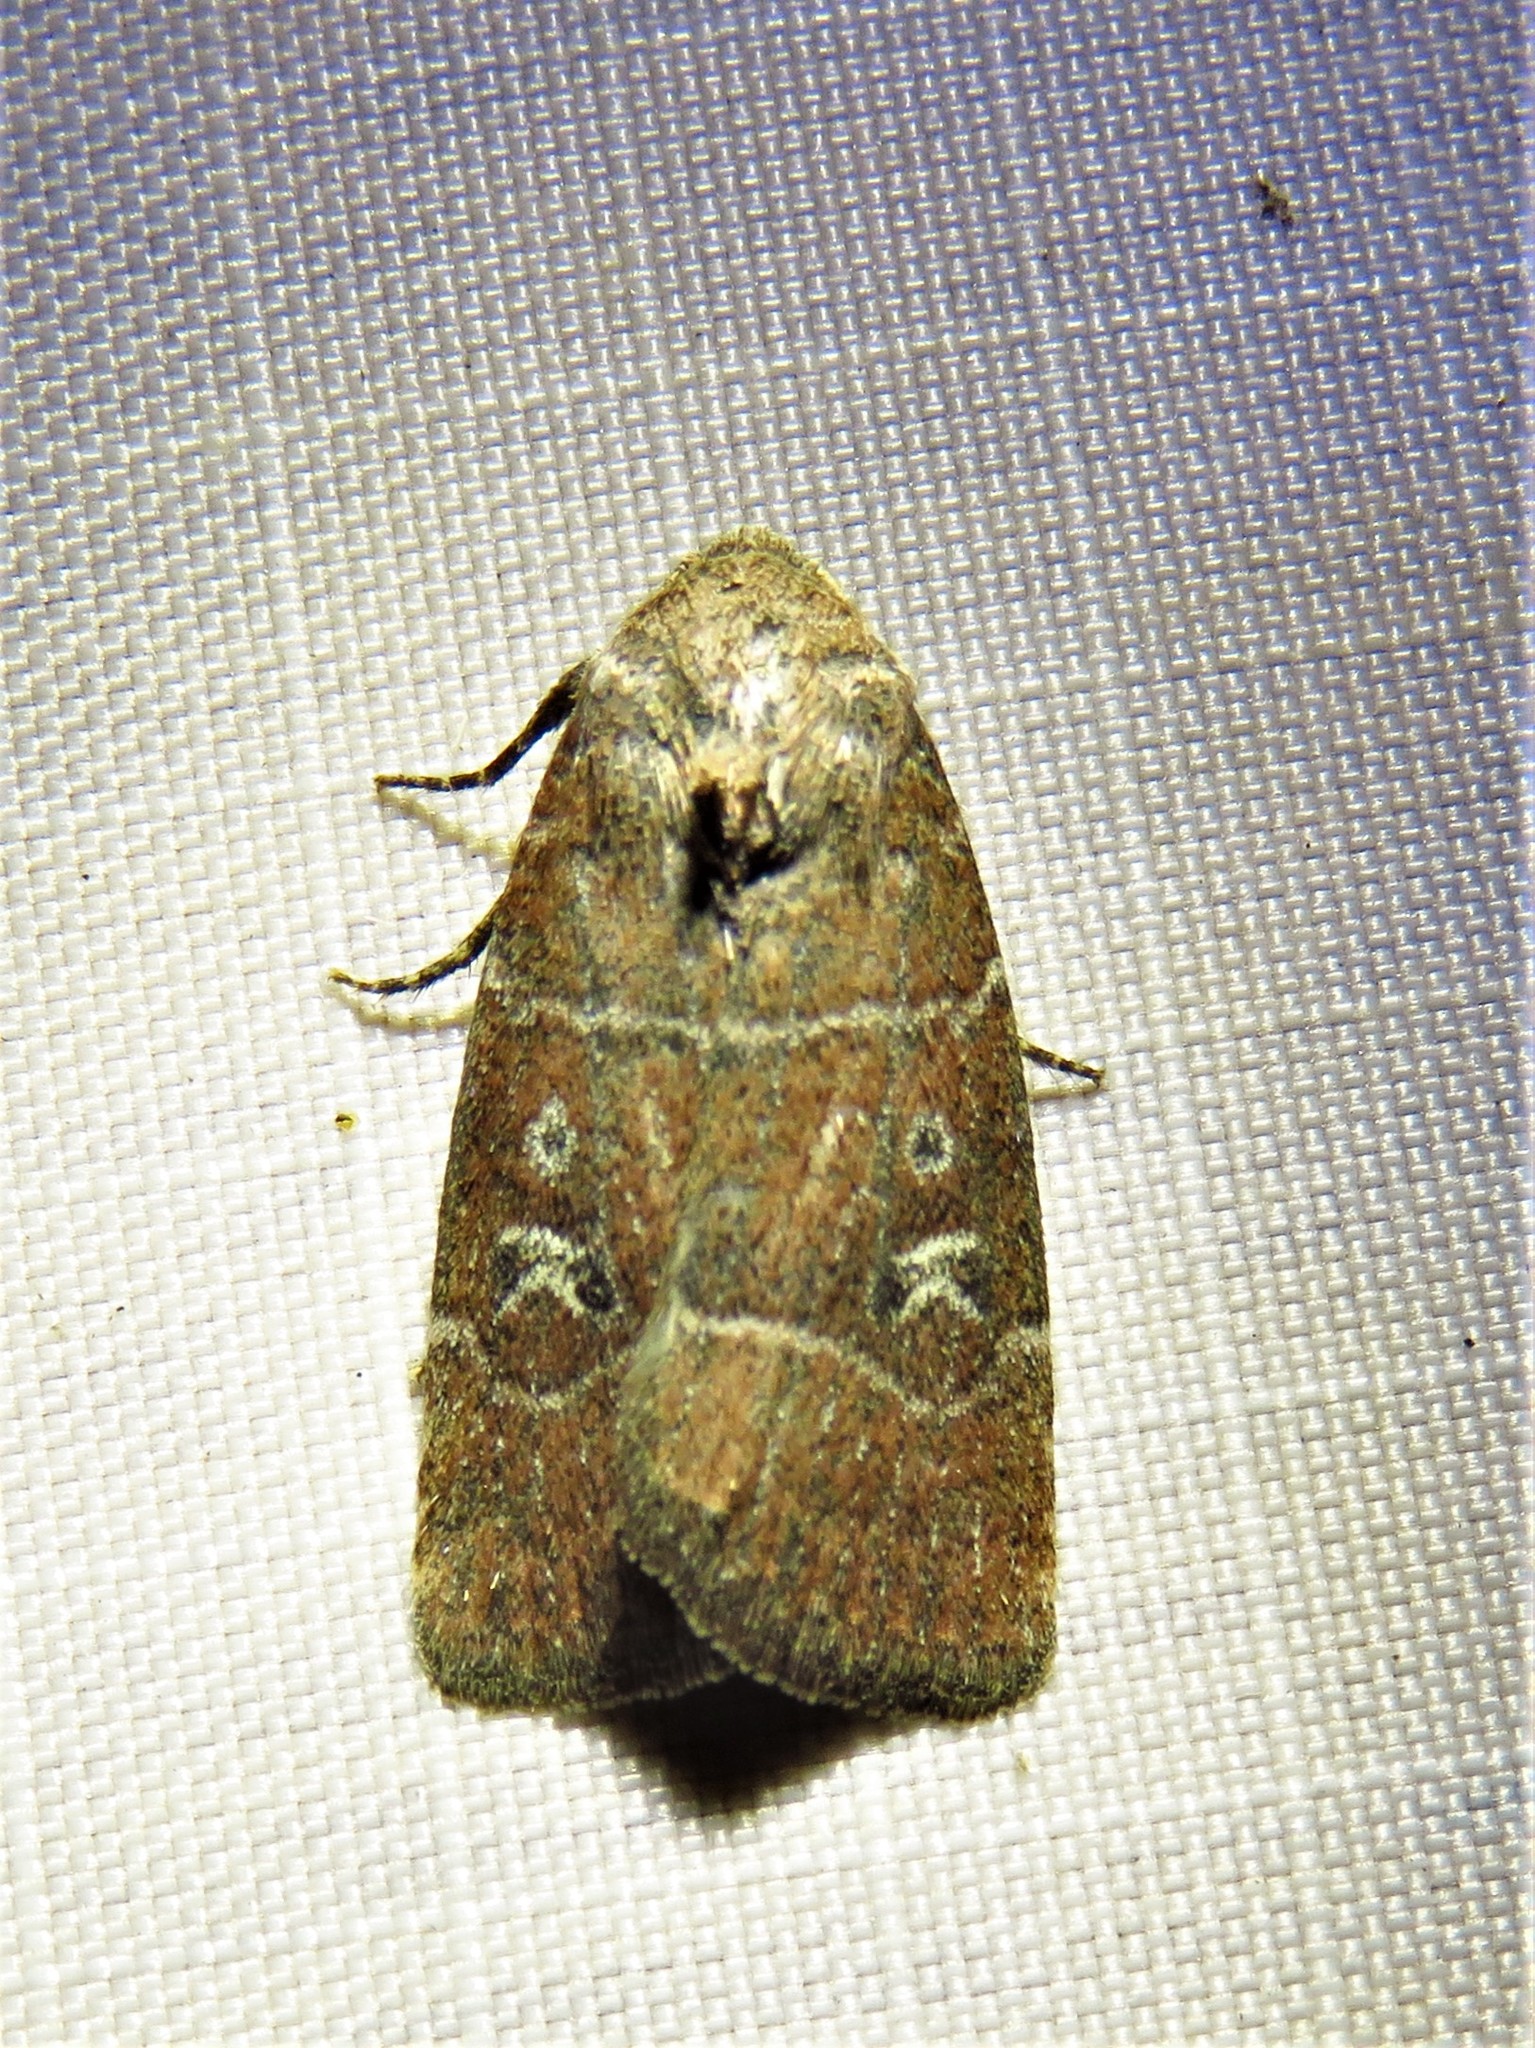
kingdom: Animalia
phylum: Arthropoda
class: Insecta
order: Lepidoptera
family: Noctuidae
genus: Elaphria
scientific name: Elaphria grata
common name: Grateful midget moth
